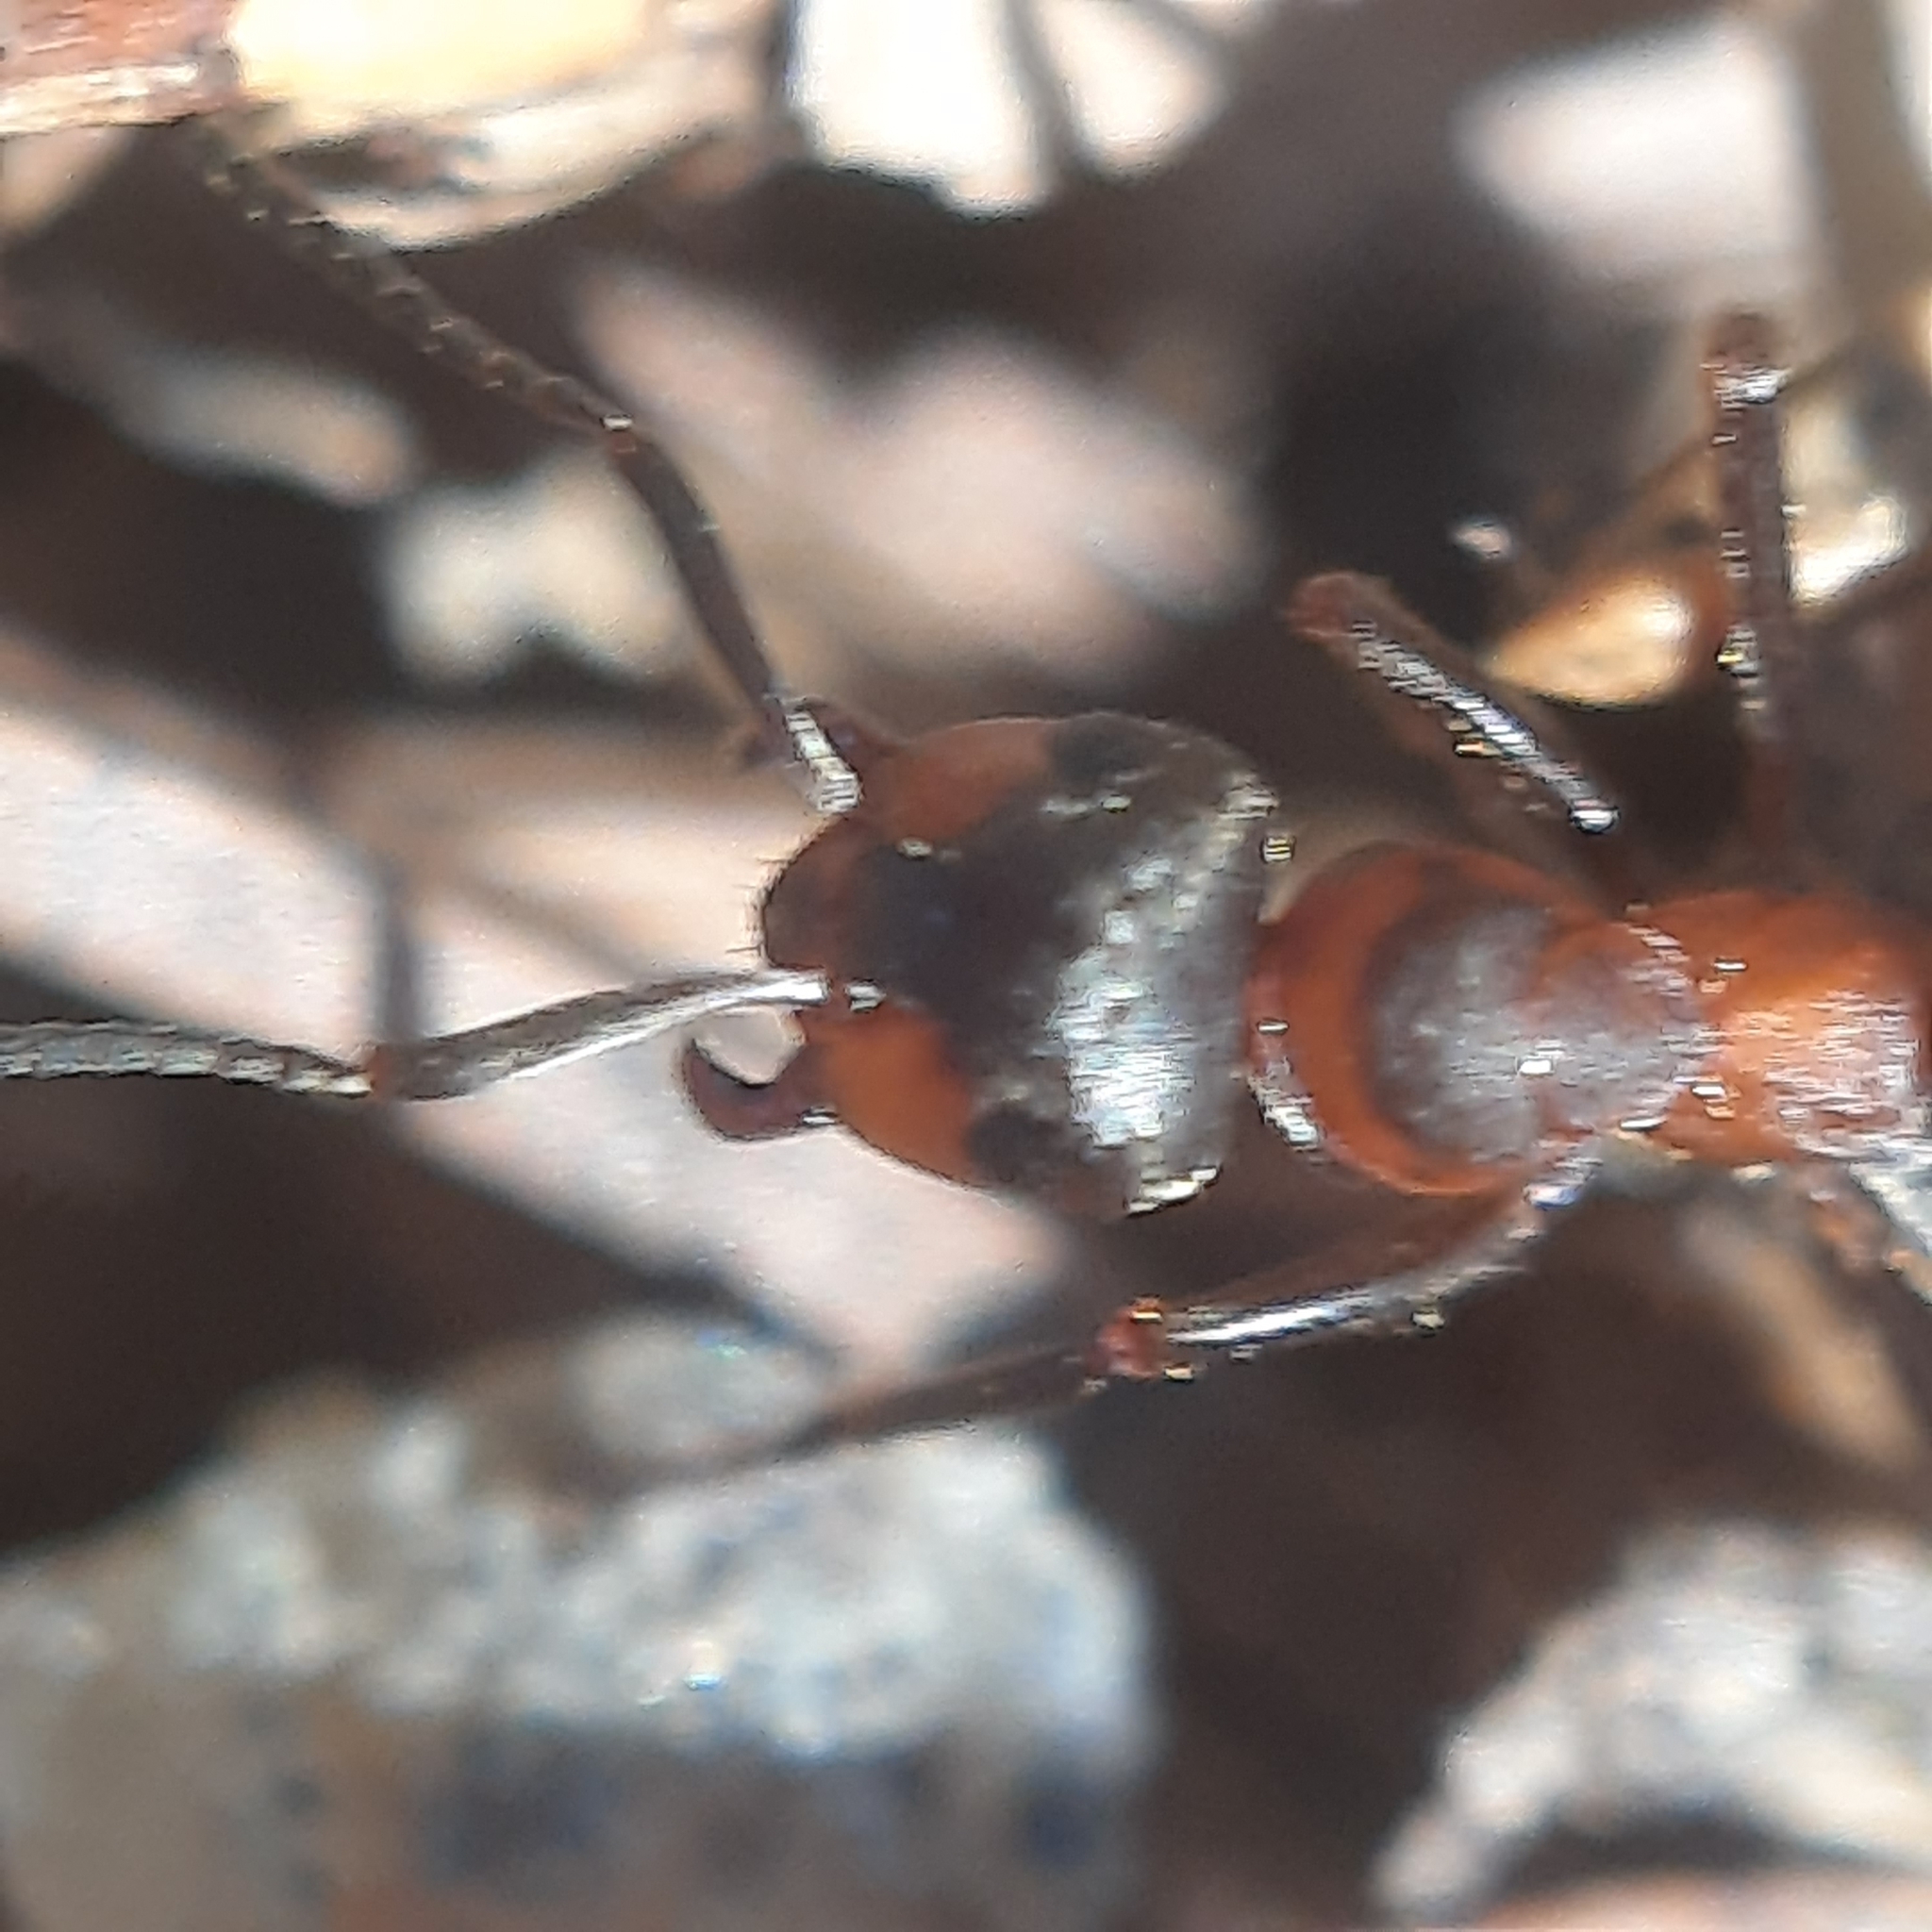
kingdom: Animalia
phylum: Arthropoda
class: Insecta
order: Hymenoptera
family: Formicidae
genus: Formica
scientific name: Formica
